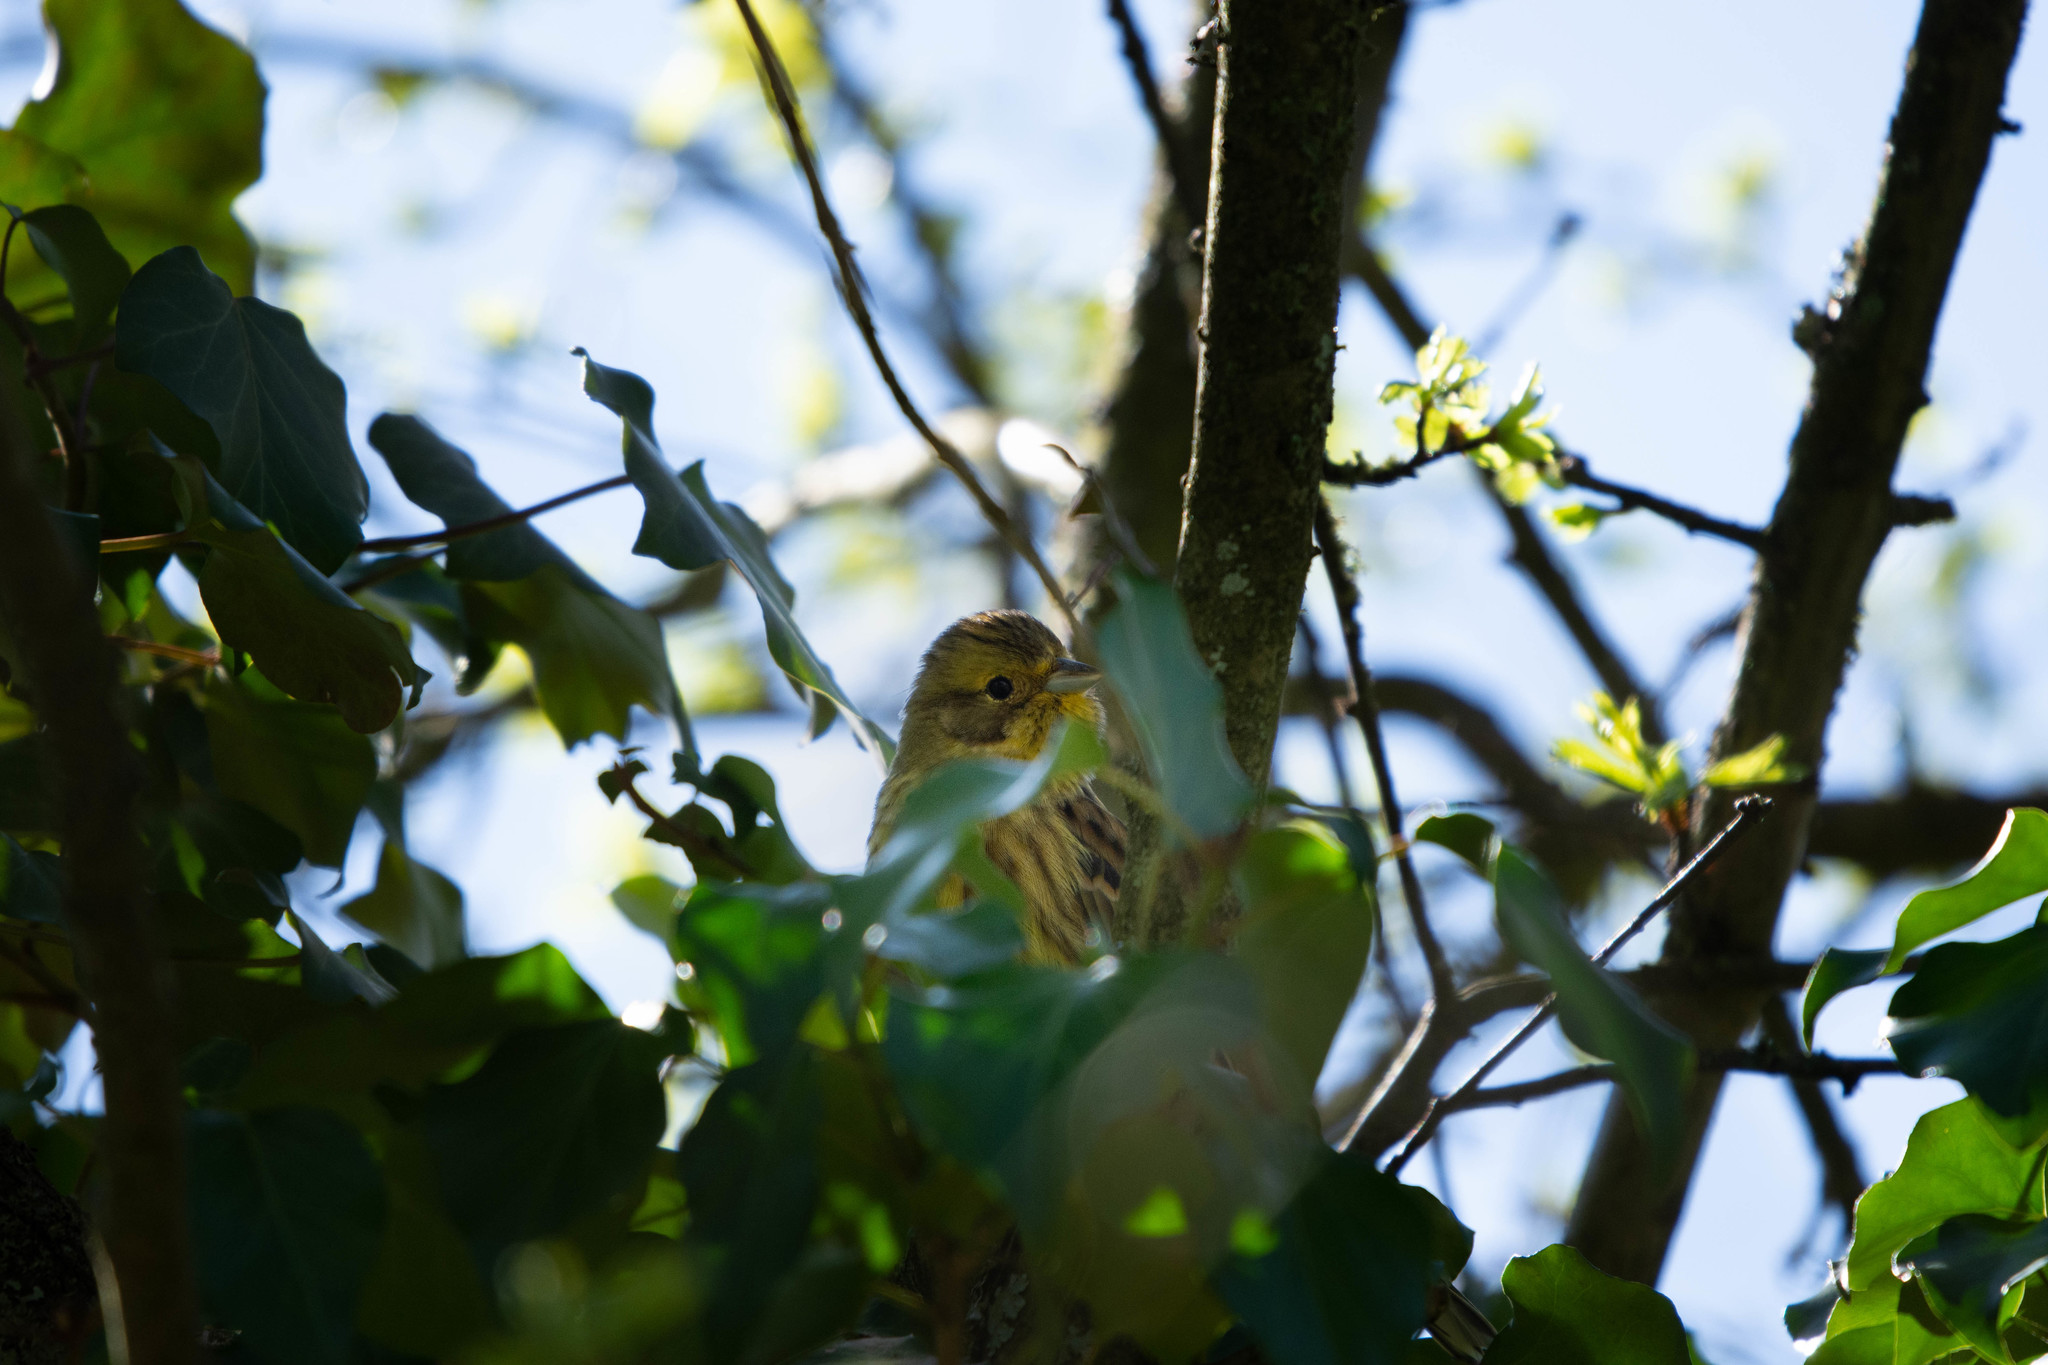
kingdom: Animalia
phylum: Chordata
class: Aves
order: Passeriformes
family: Emberizidae
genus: Emberiza
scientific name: Emberiza citrinella
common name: Yellowhammer
